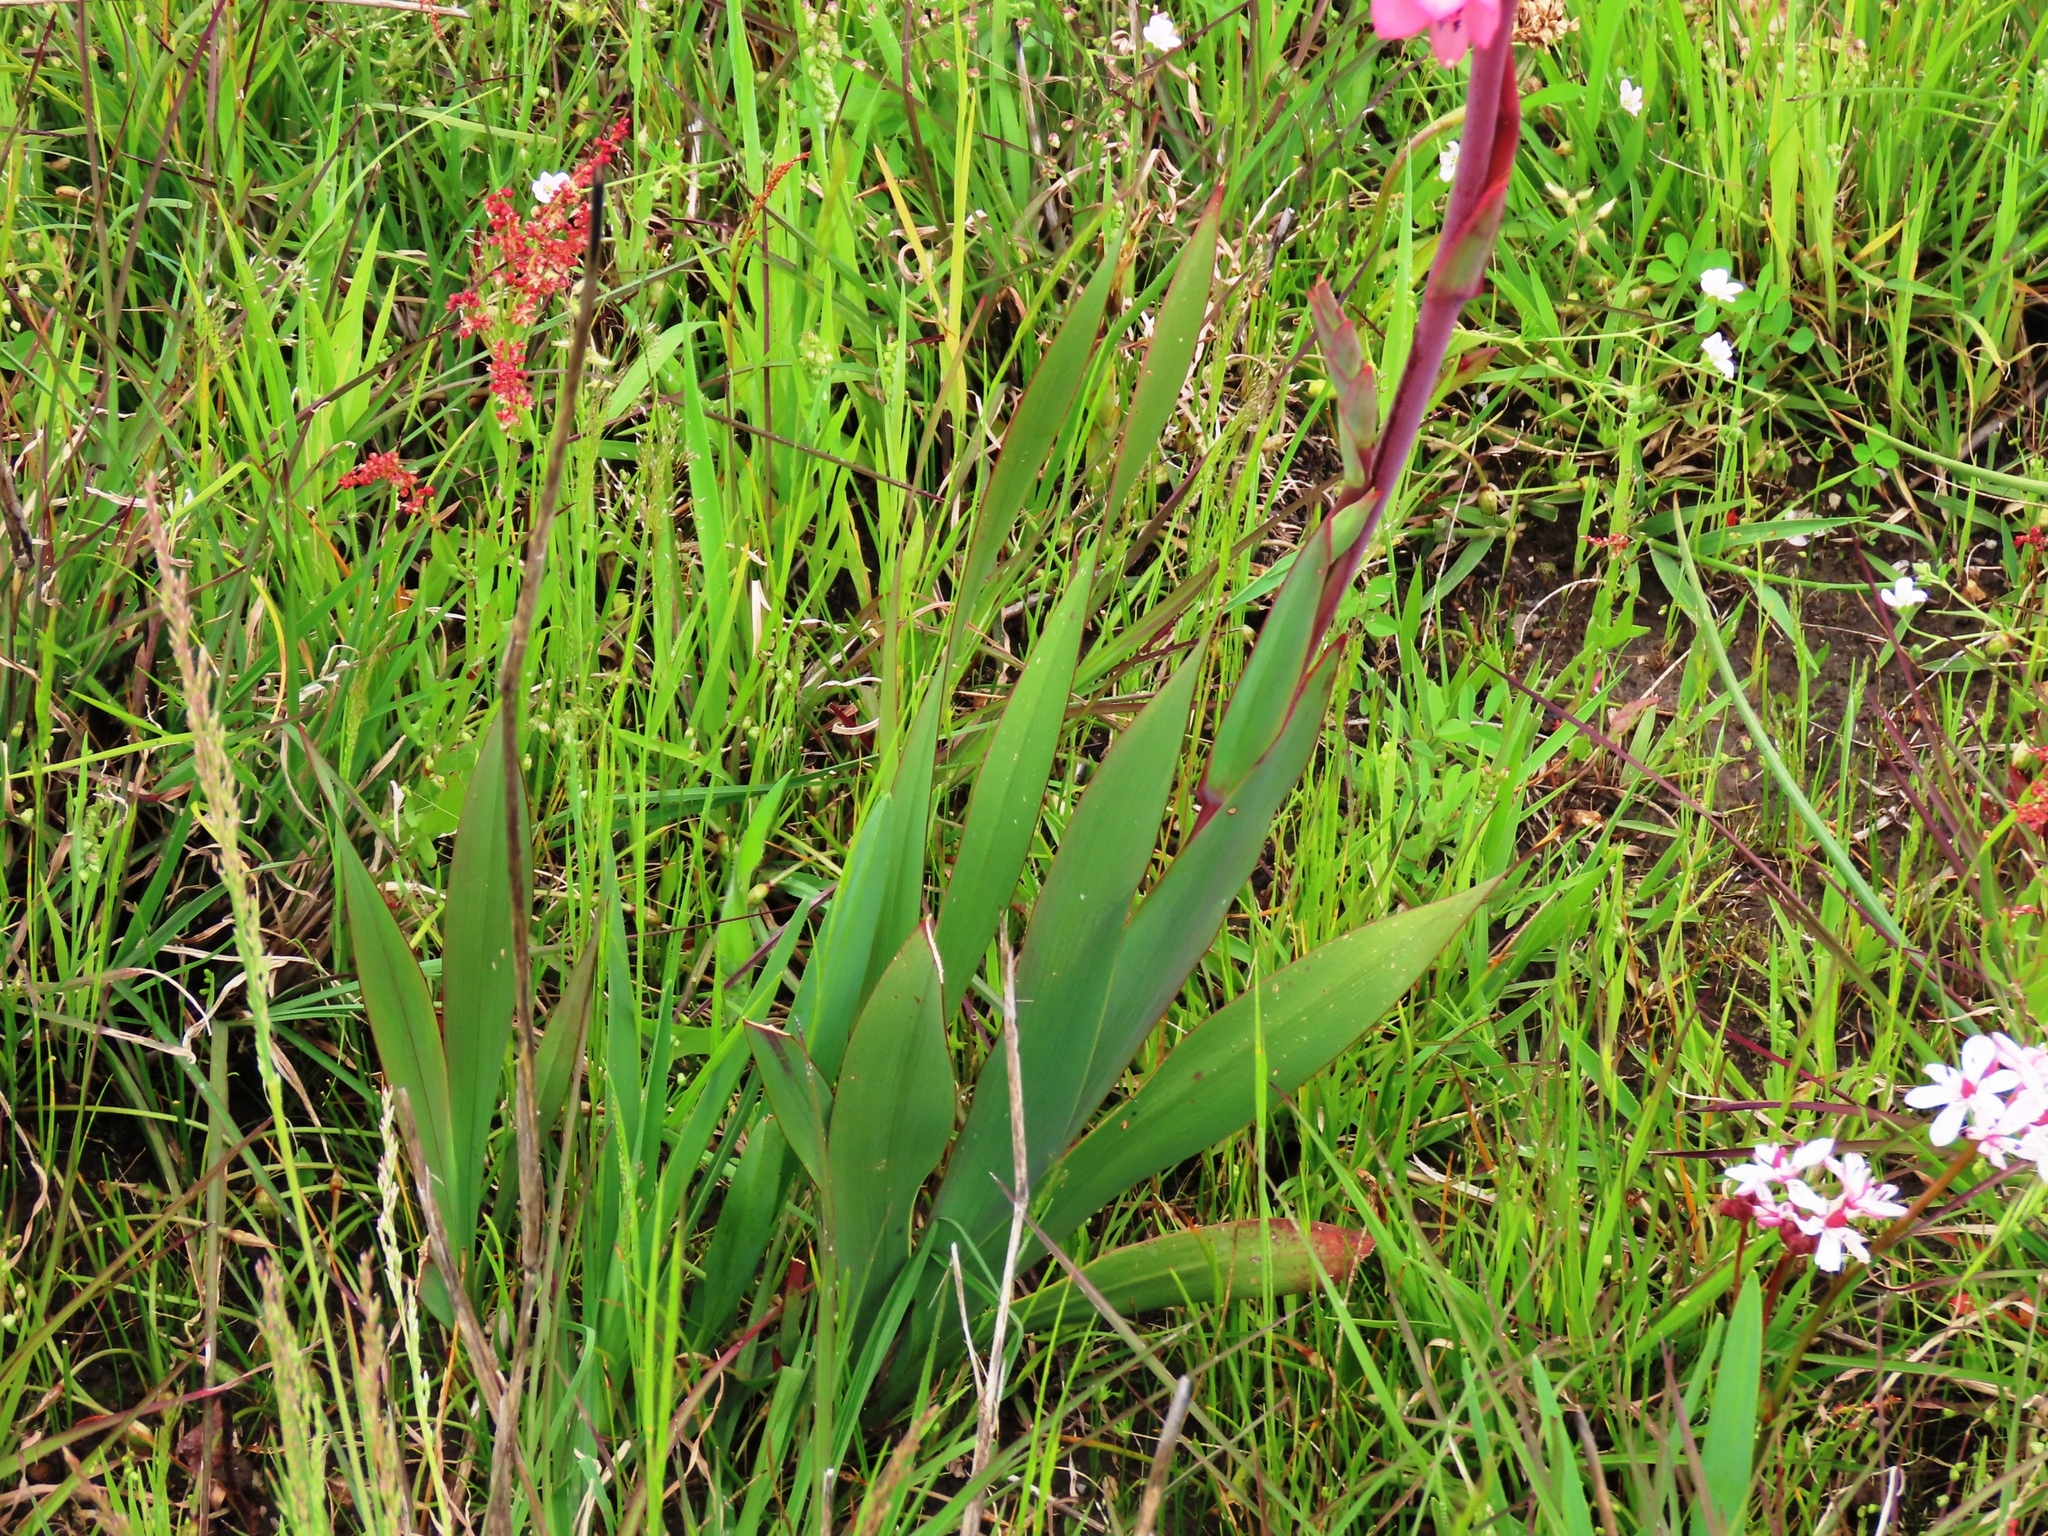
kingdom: Plantae
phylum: Tracheophyta
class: Liliopsida
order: Asparagales
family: Iridaceae
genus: Watsonia
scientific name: Watsonia meriana
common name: Bulbil bugle-lily
